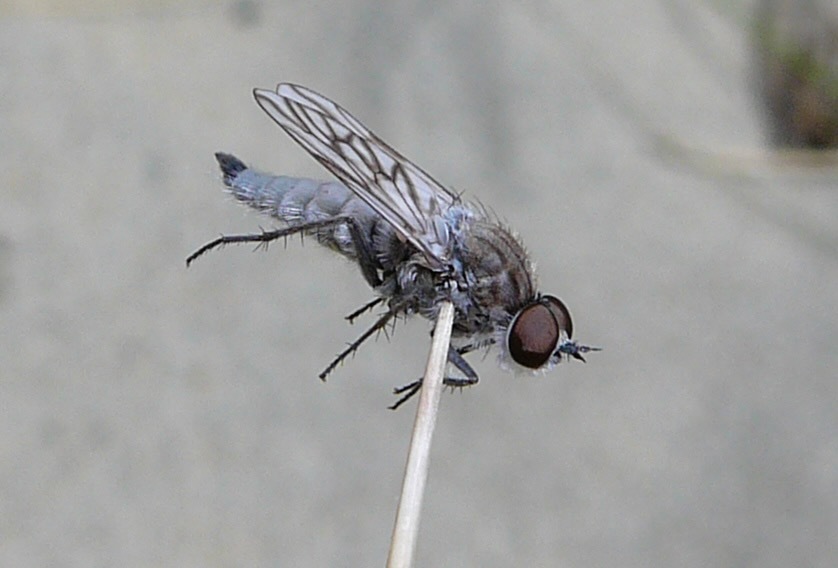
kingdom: Animalia
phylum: Arthropoda
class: Insecta
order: Diptera
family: Therevidae
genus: Anabarhynchus
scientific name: Anabarhynchus arenarius
